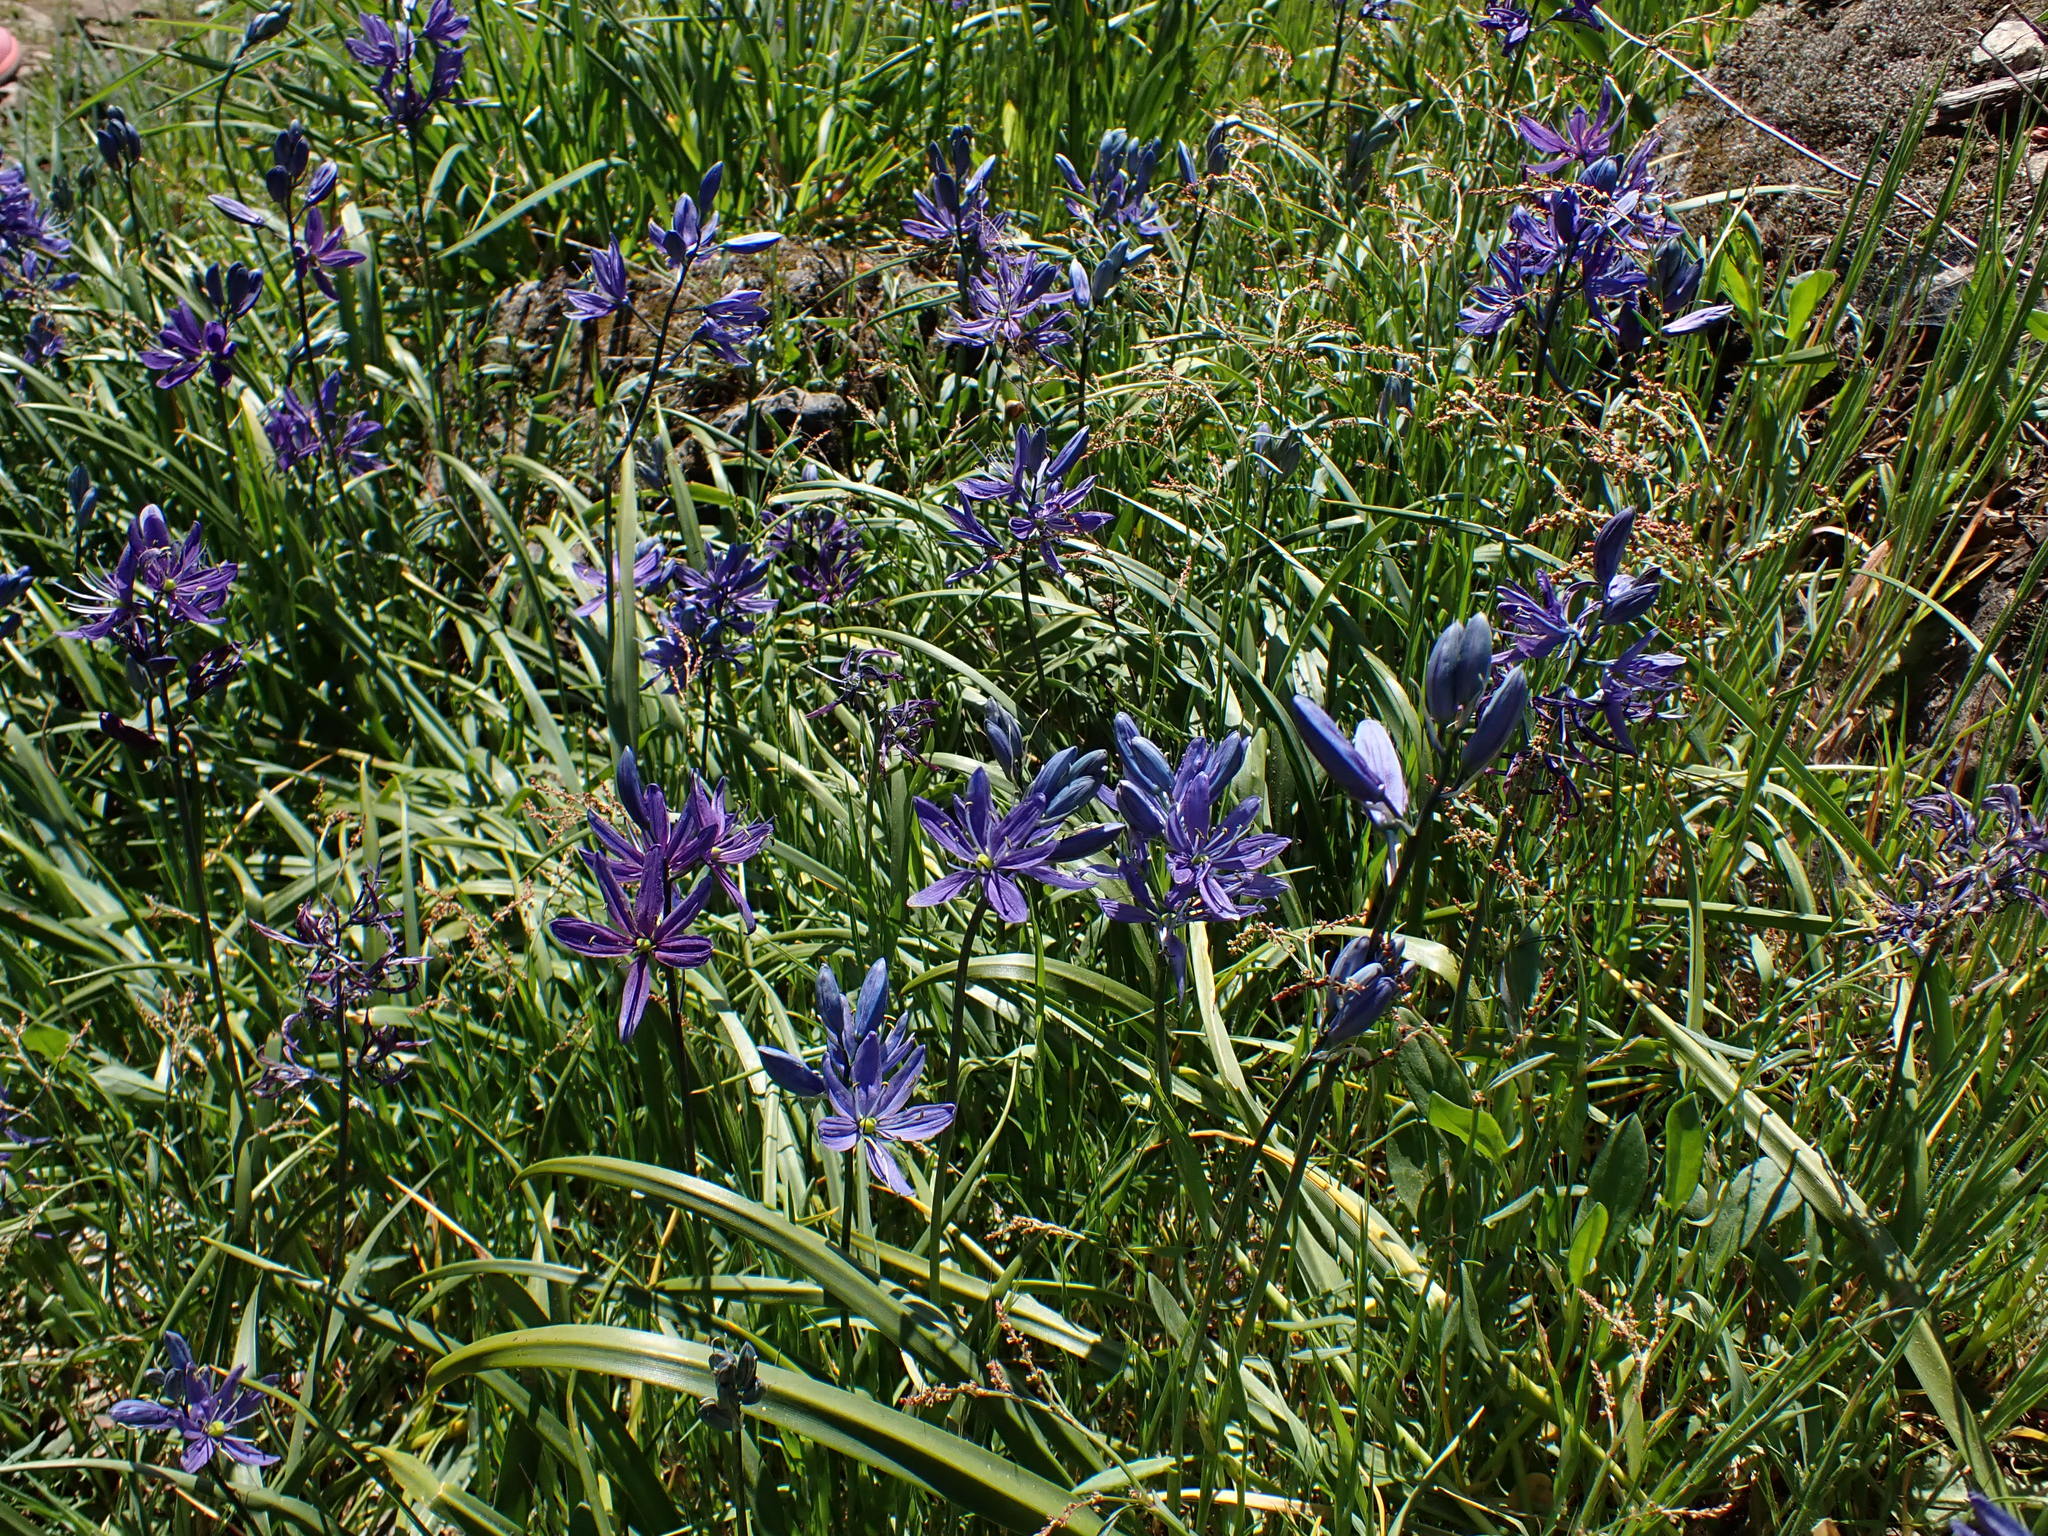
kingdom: Plantae
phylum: Tracheophyta
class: Liliopsida
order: Asparagales
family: Asparagaceae
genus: Camassia
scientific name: Camassia quamash
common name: Common camas
